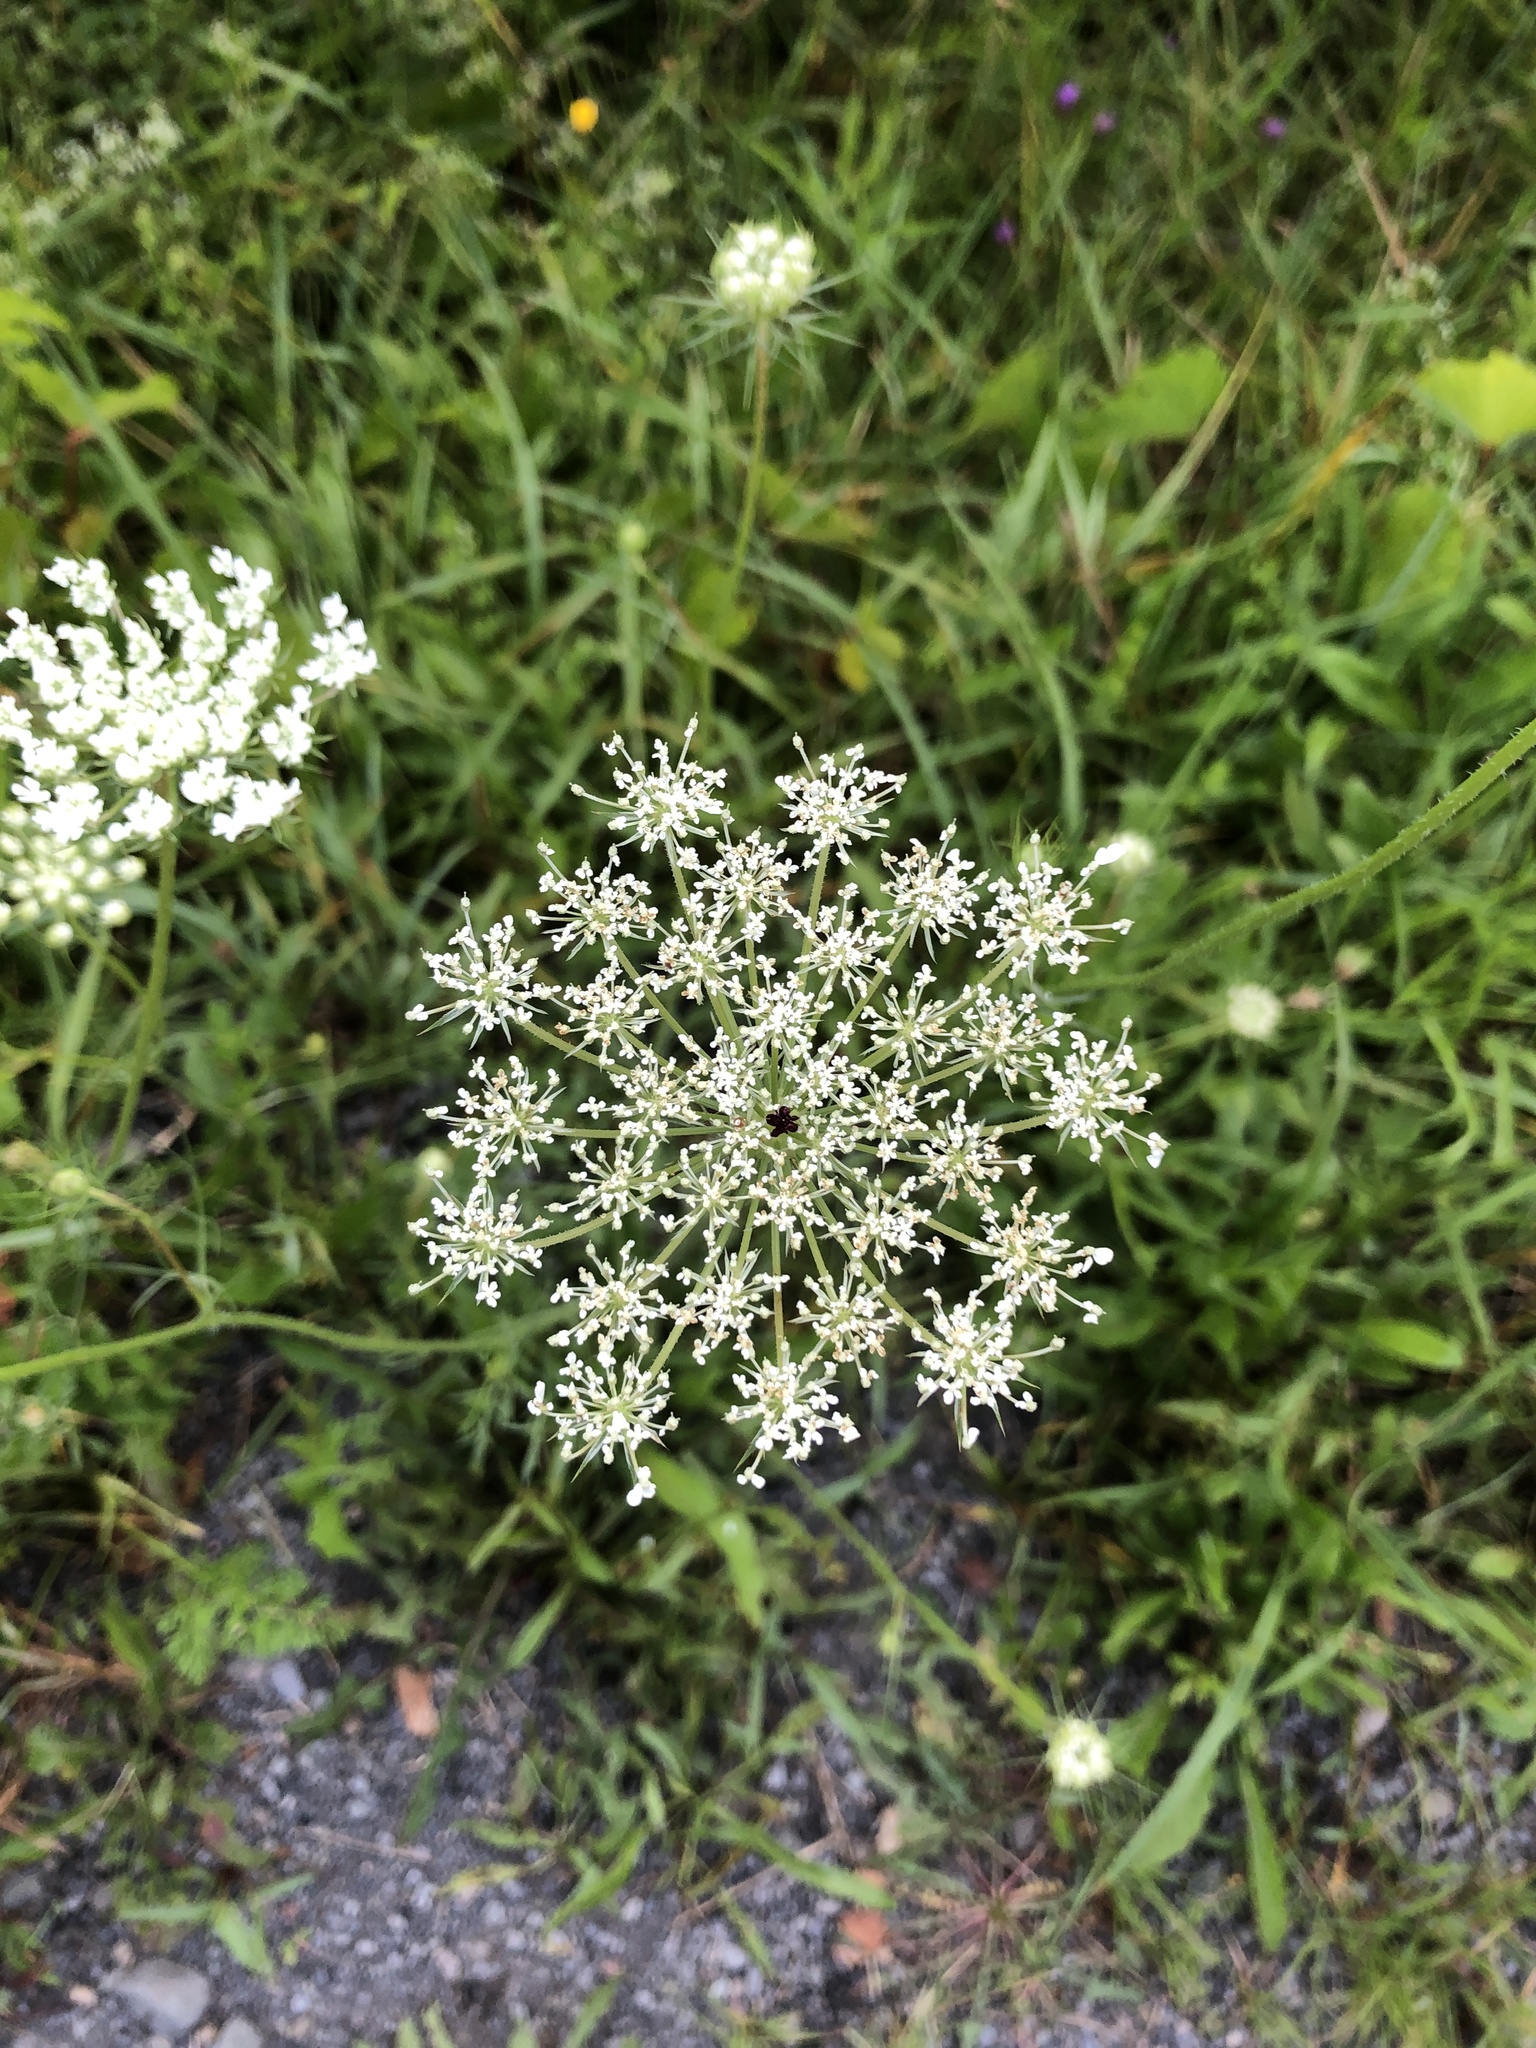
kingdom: Plantae
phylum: Tracheophyta
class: Magnoliopsida
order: Apiales
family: Apiaceae
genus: Daucus
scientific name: Daucus carota
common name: Wild carrot
